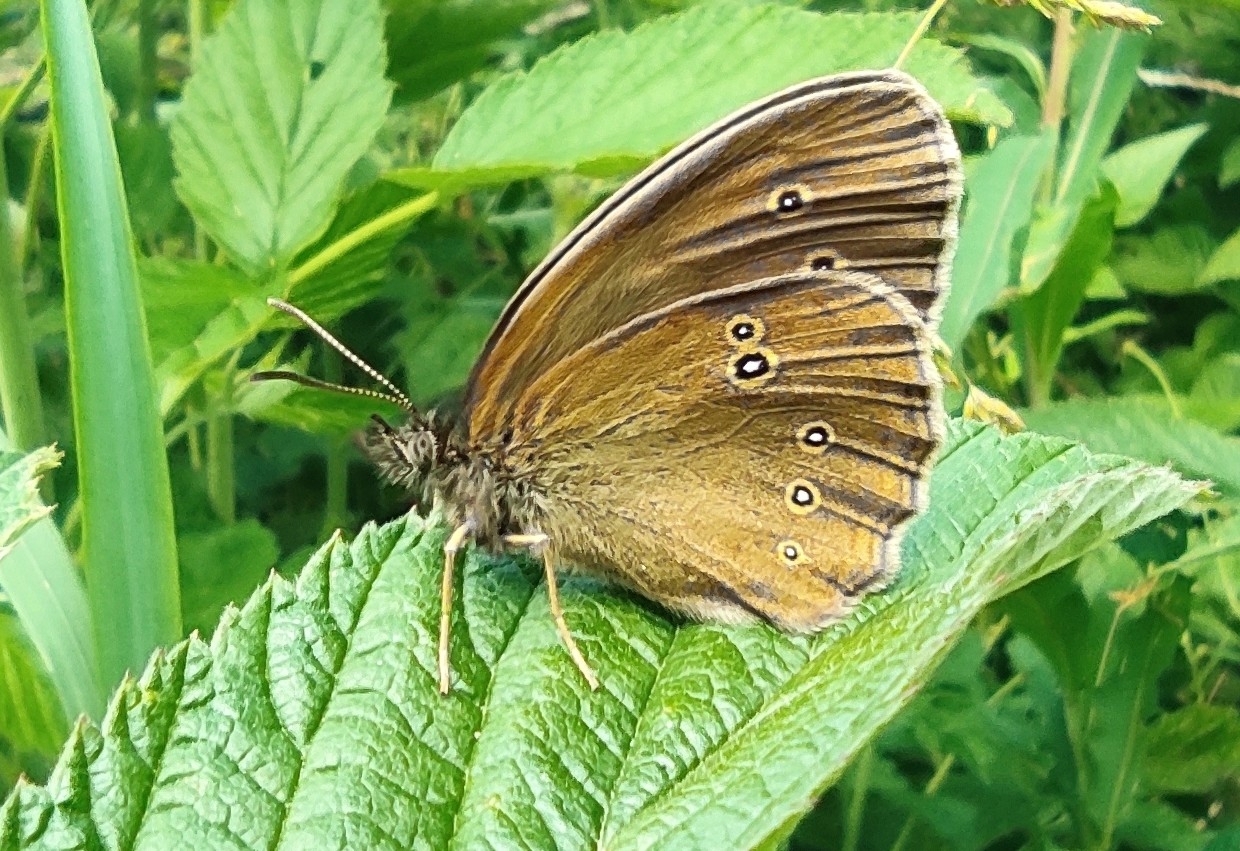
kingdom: Animalia
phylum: Arthropoda
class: Insecta
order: Lepidoptera
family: Nymphalidae
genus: Aphantopus
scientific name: Aphantopus hyperantus
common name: Ringlet
